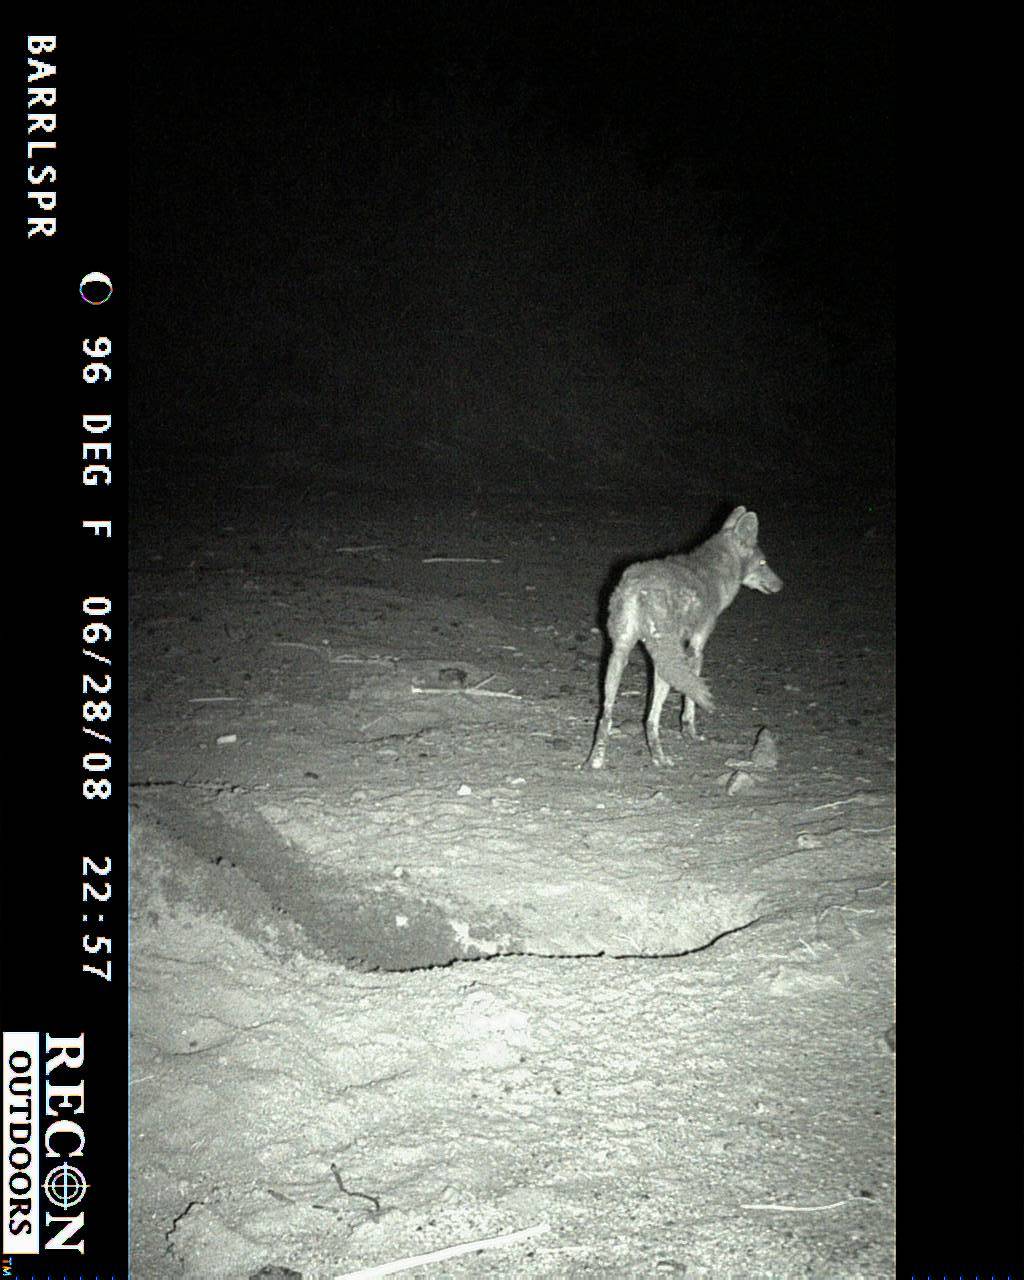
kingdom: Animalia
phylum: Chordata
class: Mammalia
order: Carnivora
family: Canidae
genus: Canis
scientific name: Canis latrans
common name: Coyote
